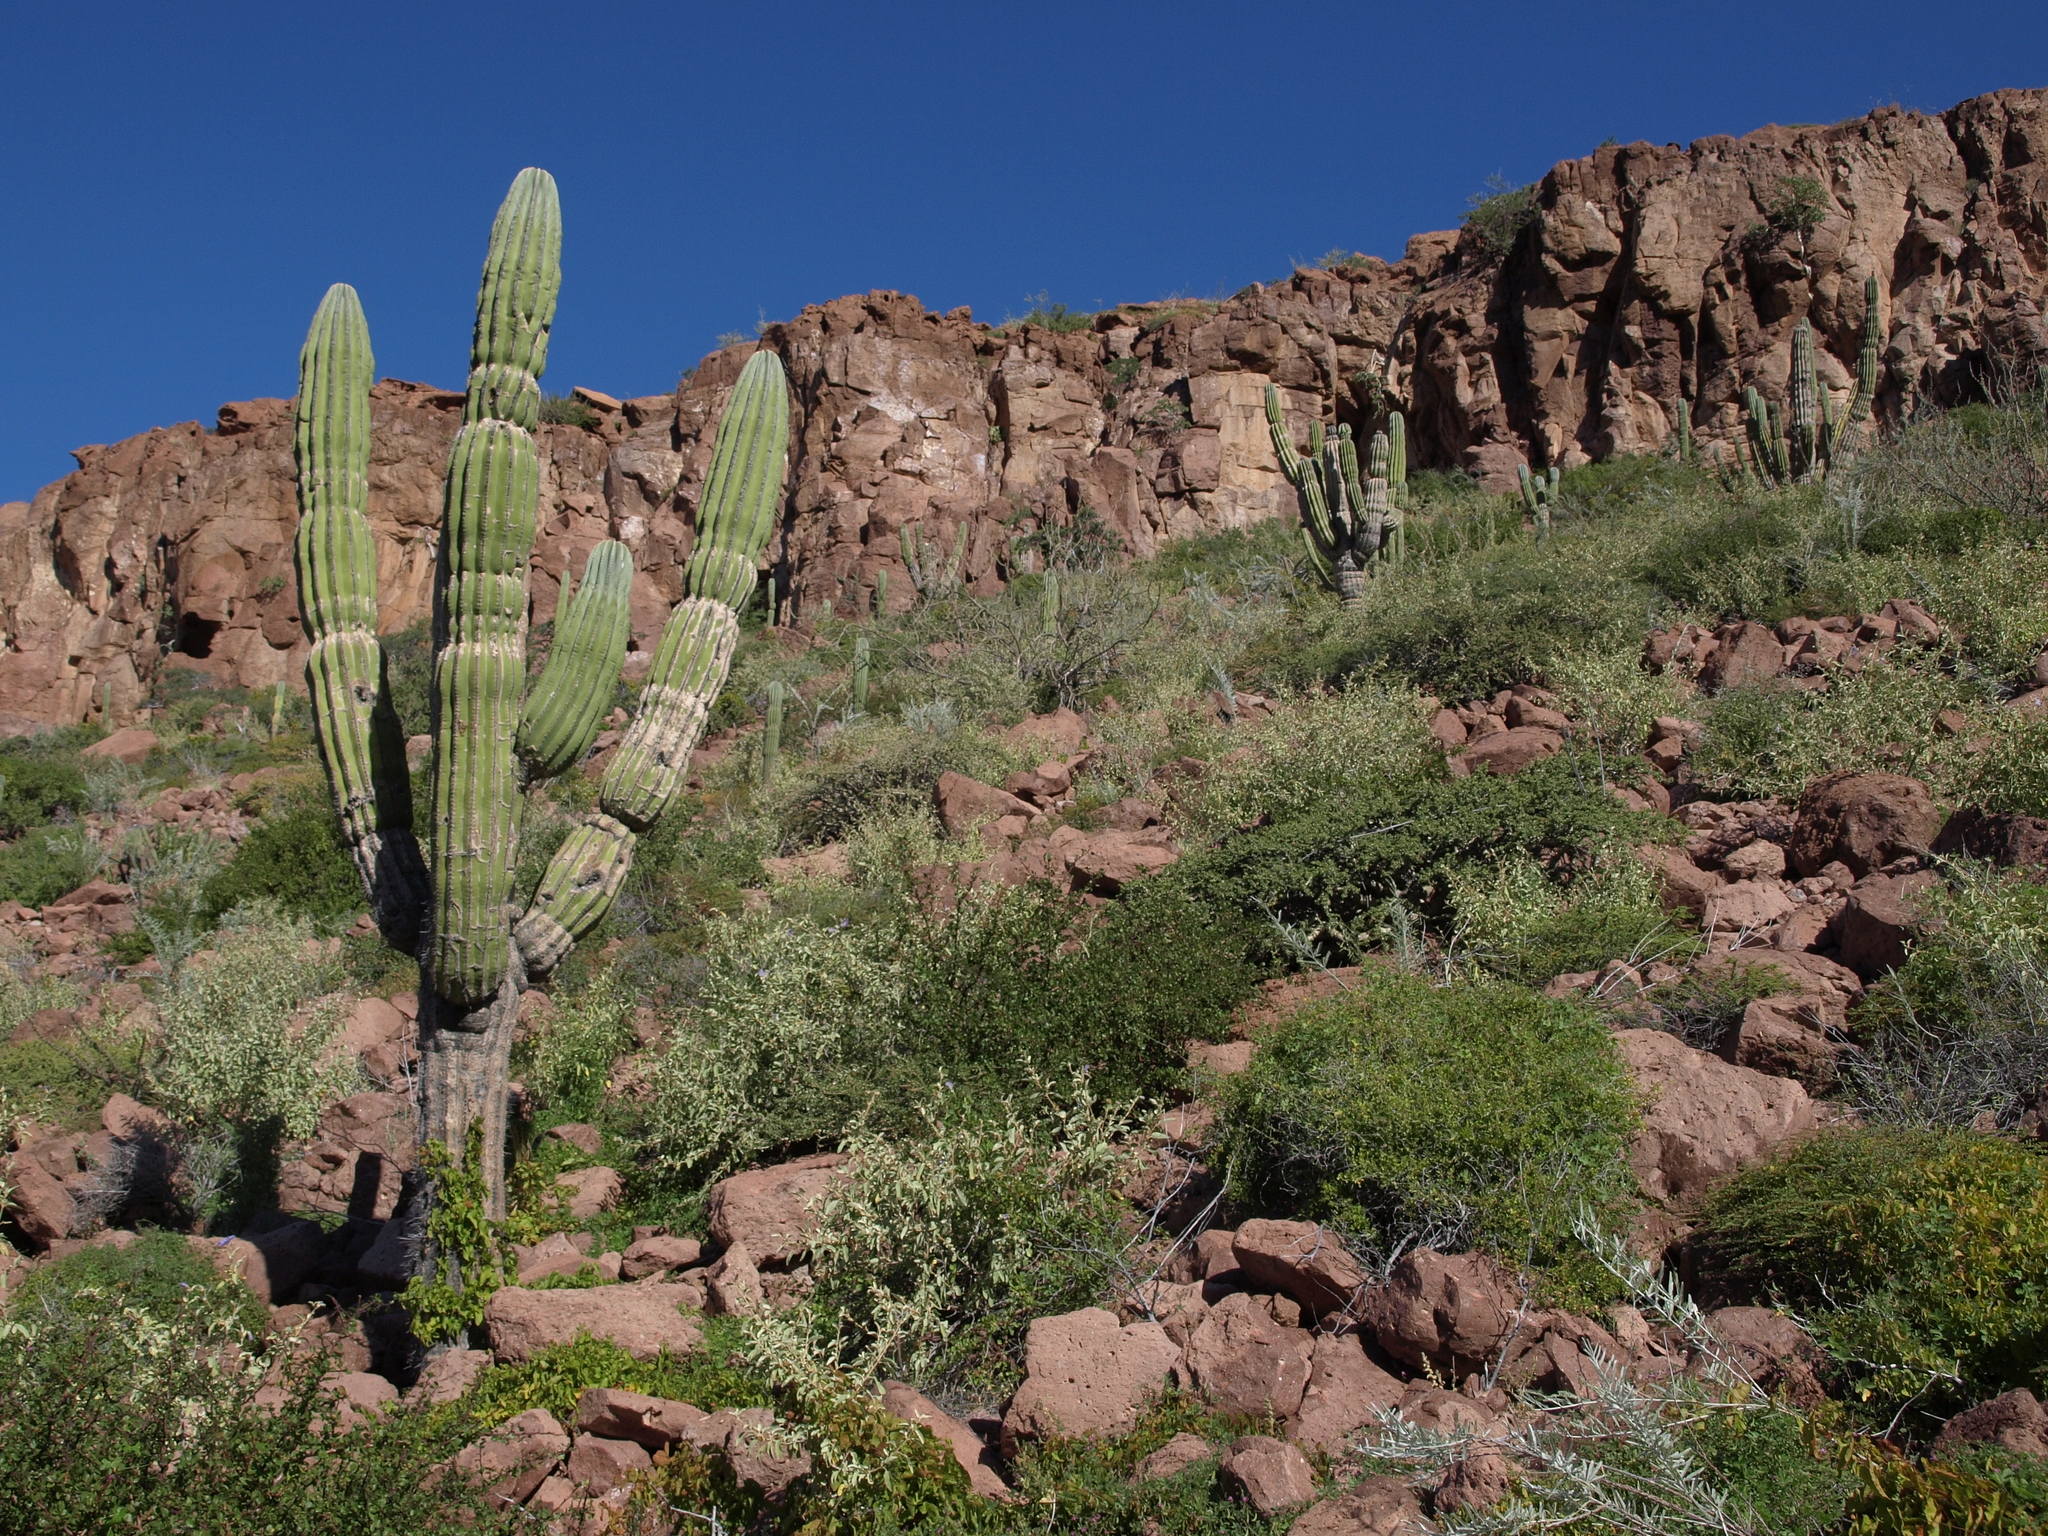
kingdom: Plantae
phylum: Tracheophyta
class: Magnoliopsida
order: Caryophyllales
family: Cactaceae
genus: Pachycereus
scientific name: Pachycereus pringlei
